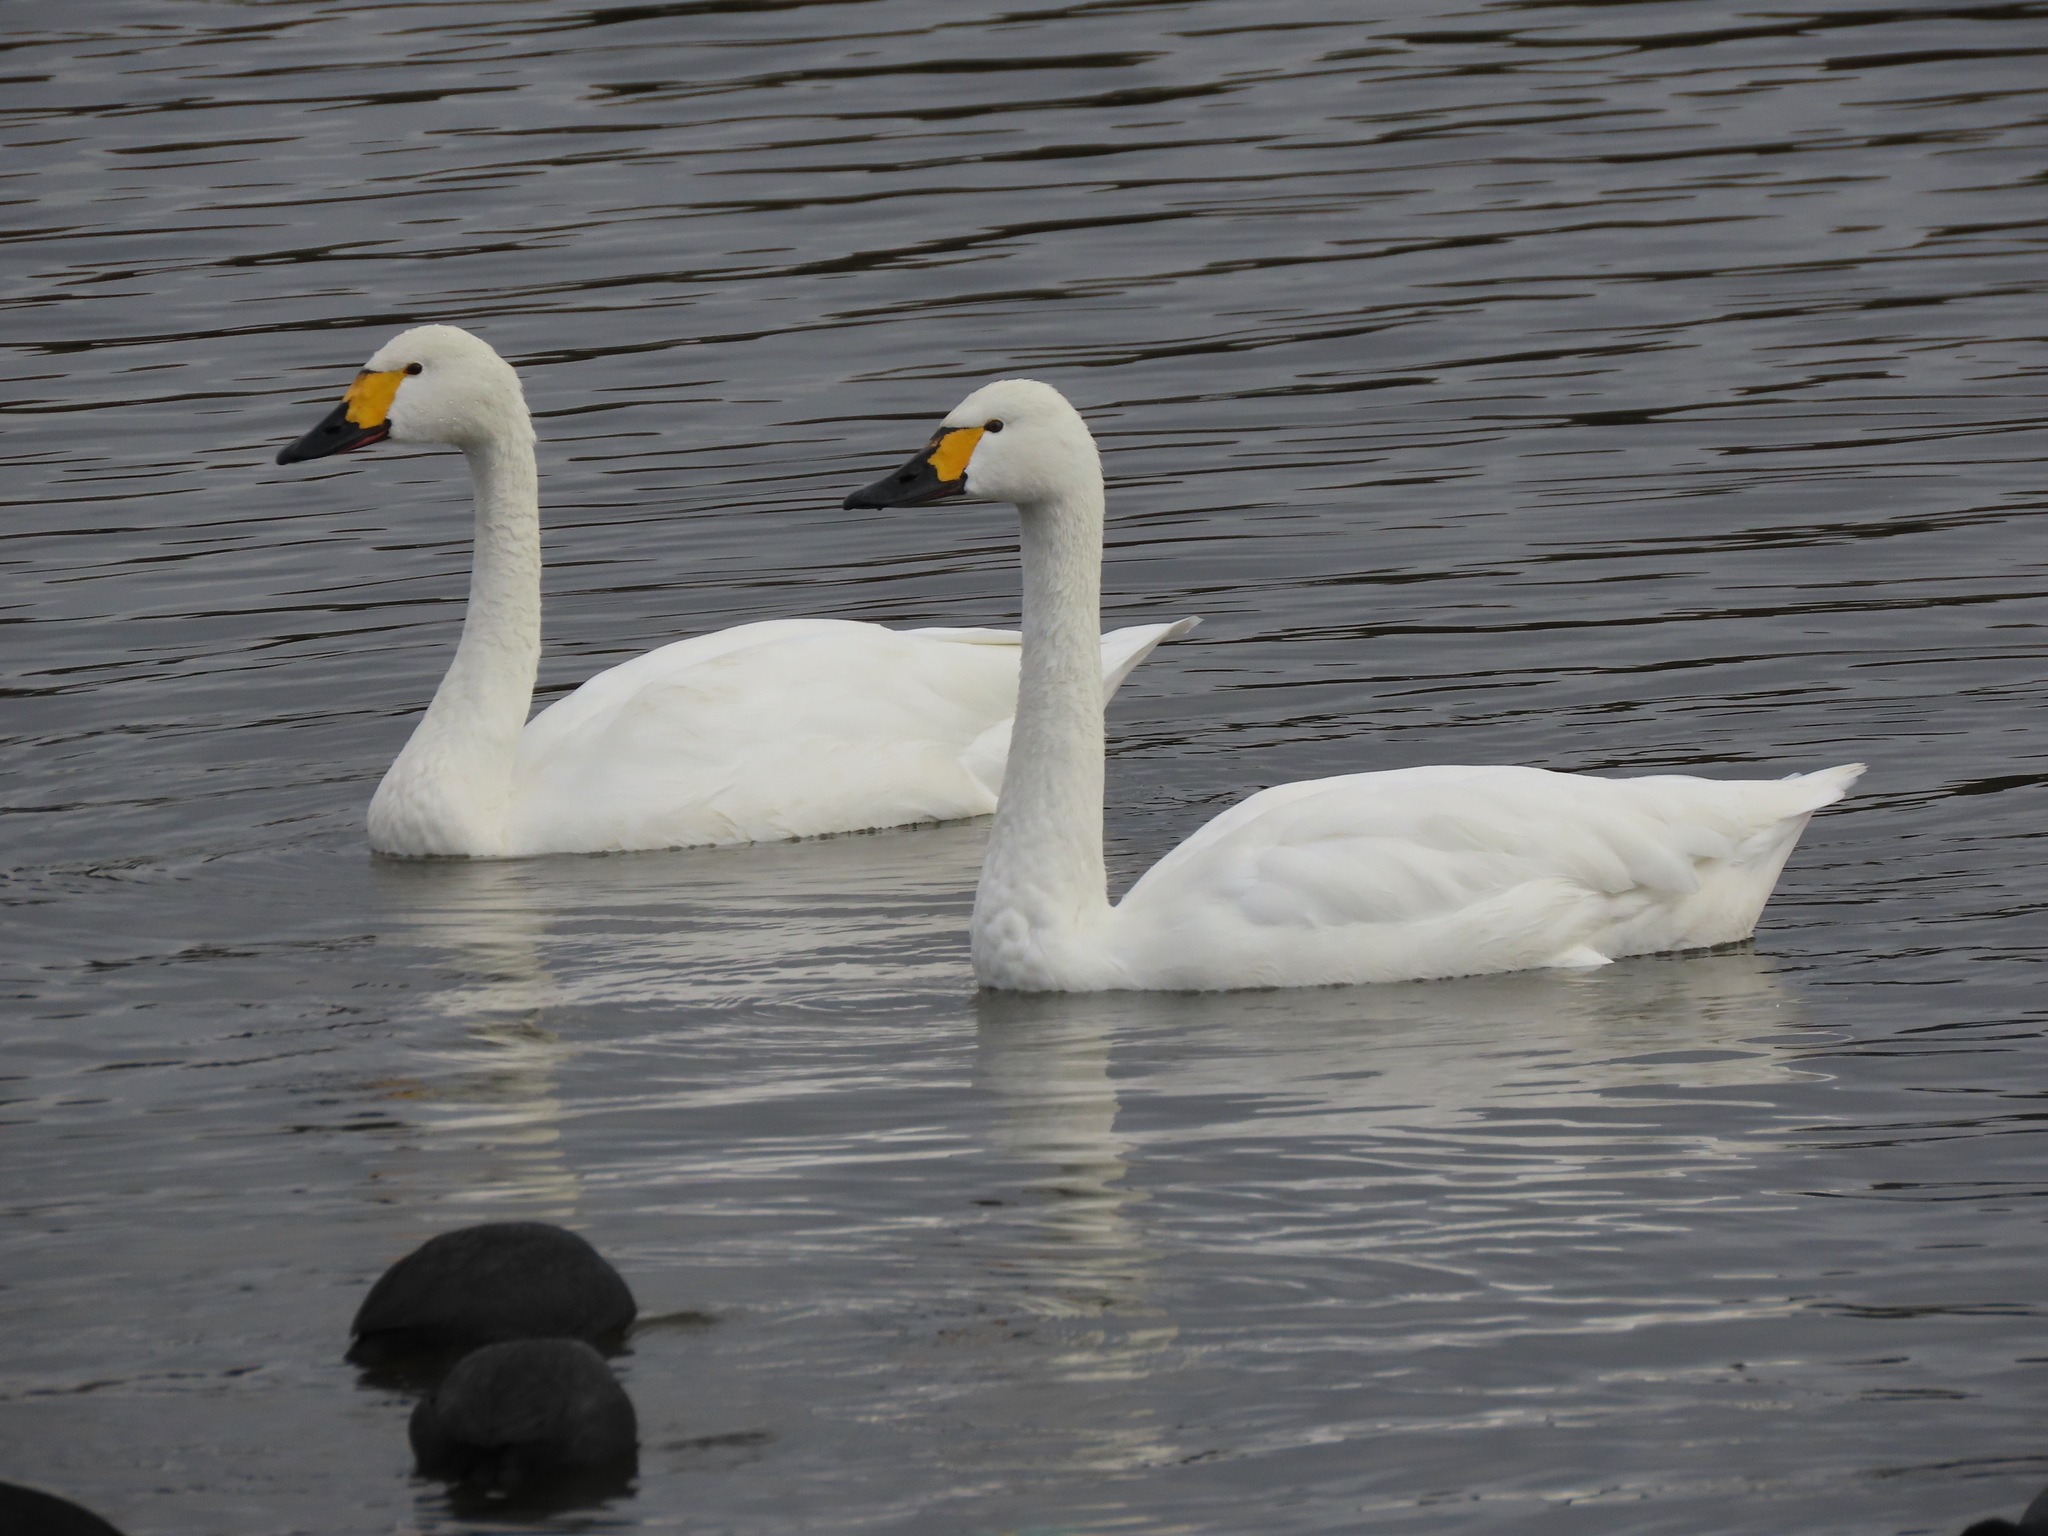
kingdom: Animalia
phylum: Chordata
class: Aves
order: Anseriformes
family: Anatidae
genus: Cygnus
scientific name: Cygnus columbianus
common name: Tundra swan
